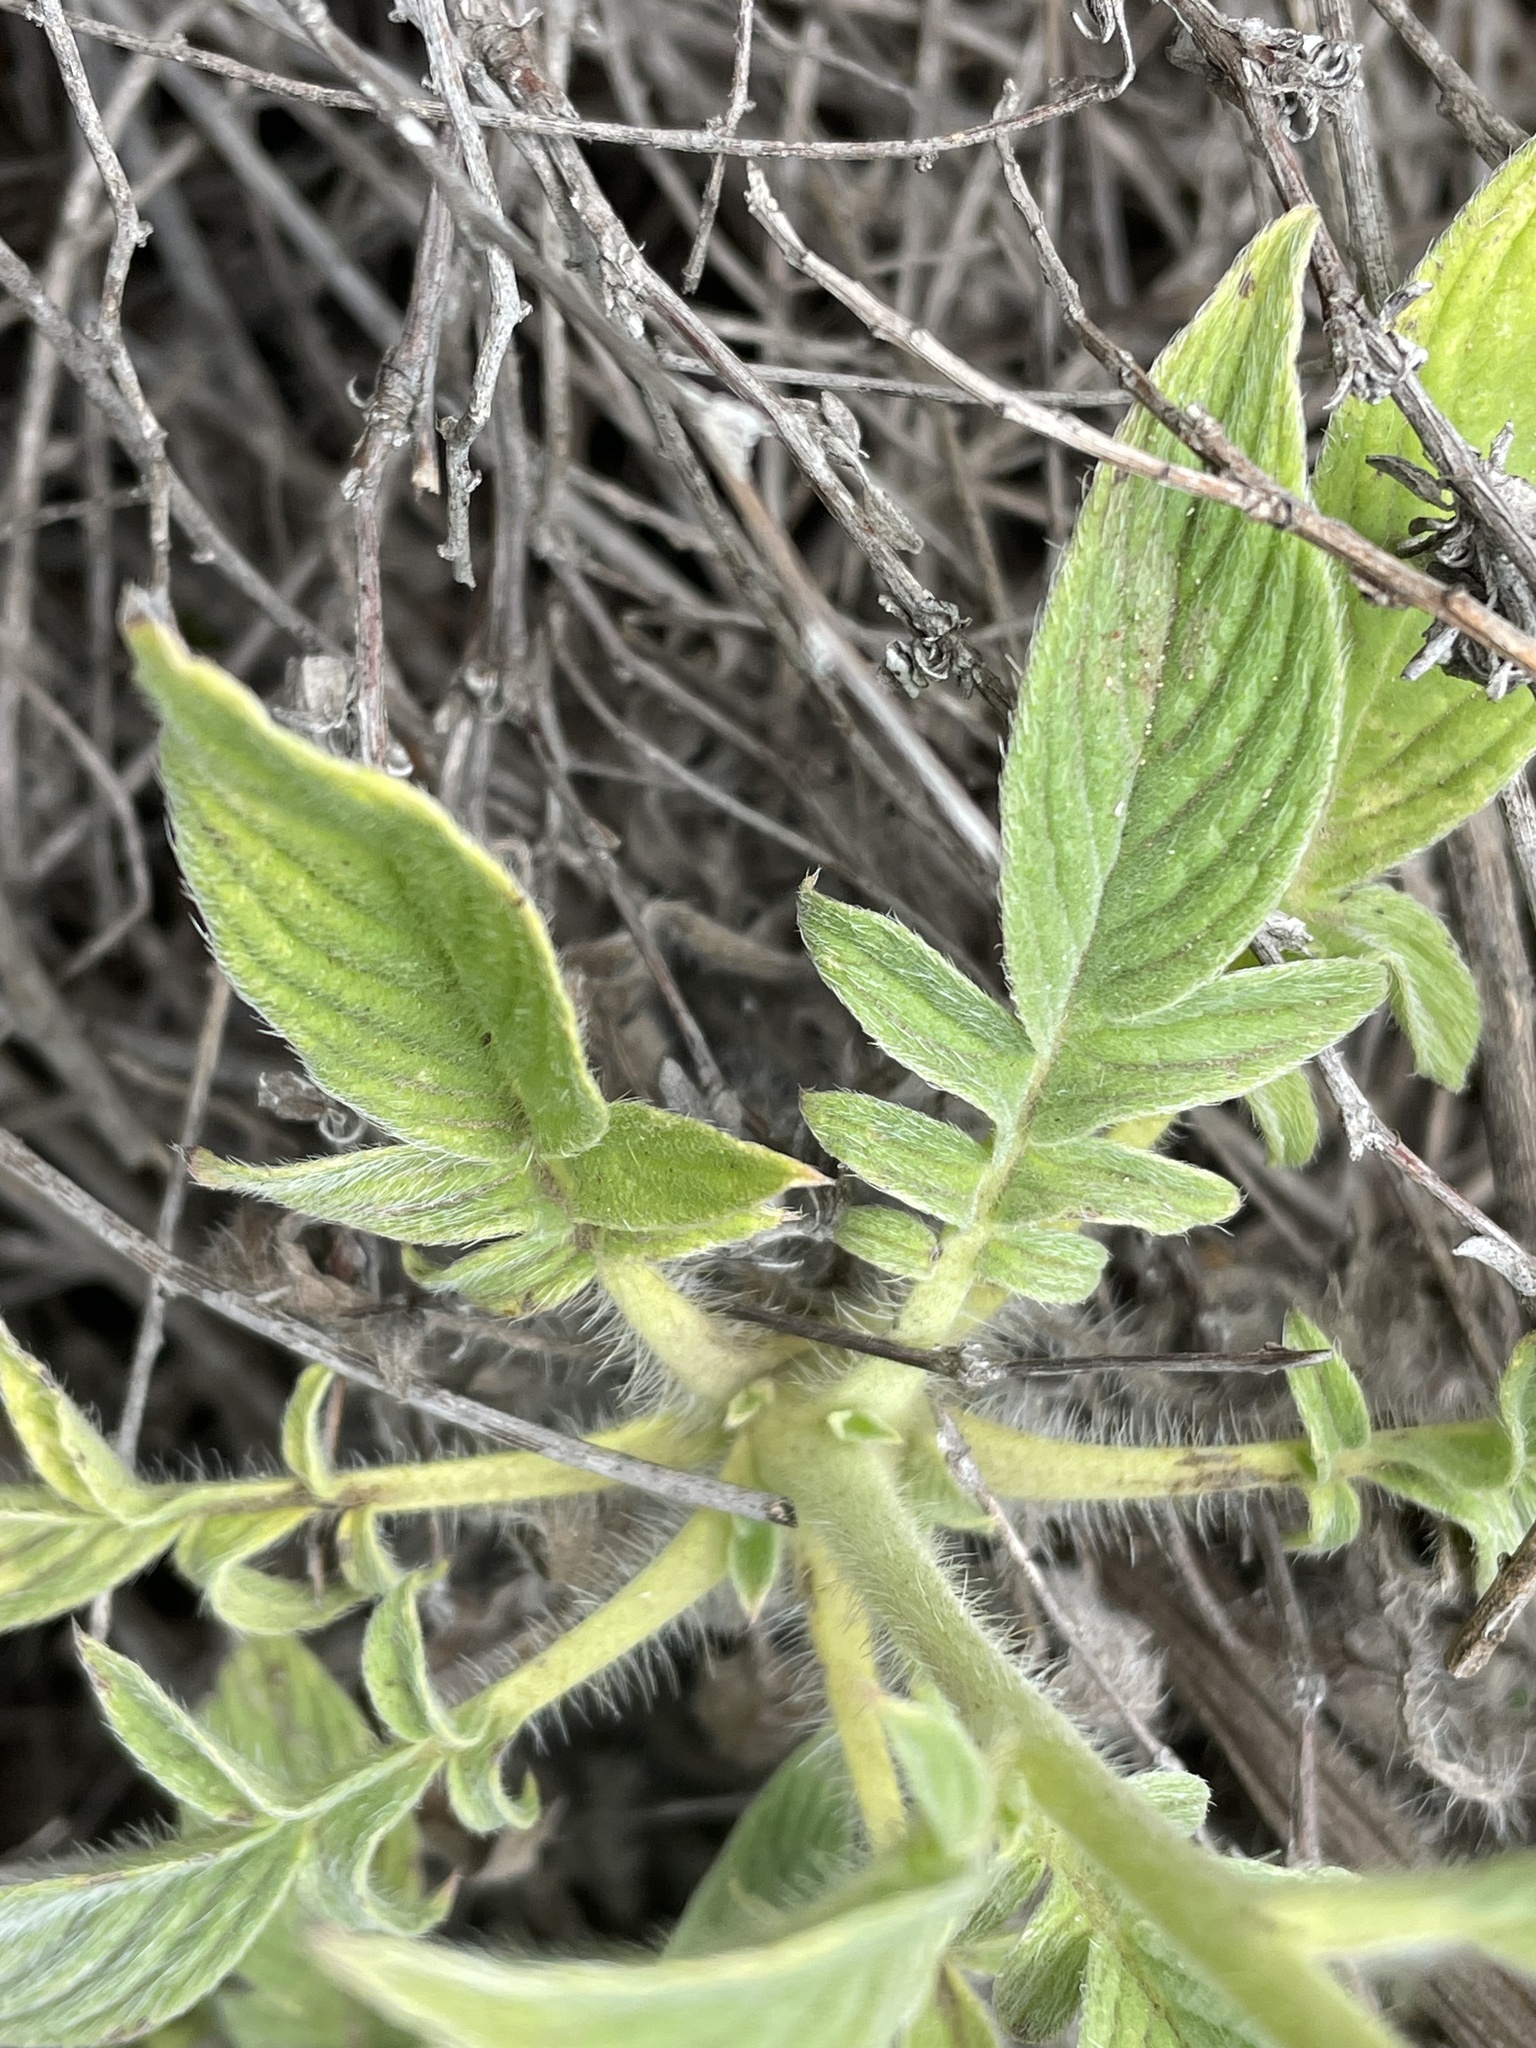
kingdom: Plantae
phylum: Tracheophyta
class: Magnoliopsida
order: Boraginales
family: Hydrophyllaceae
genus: Phacelia
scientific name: Phacelia imbricata
